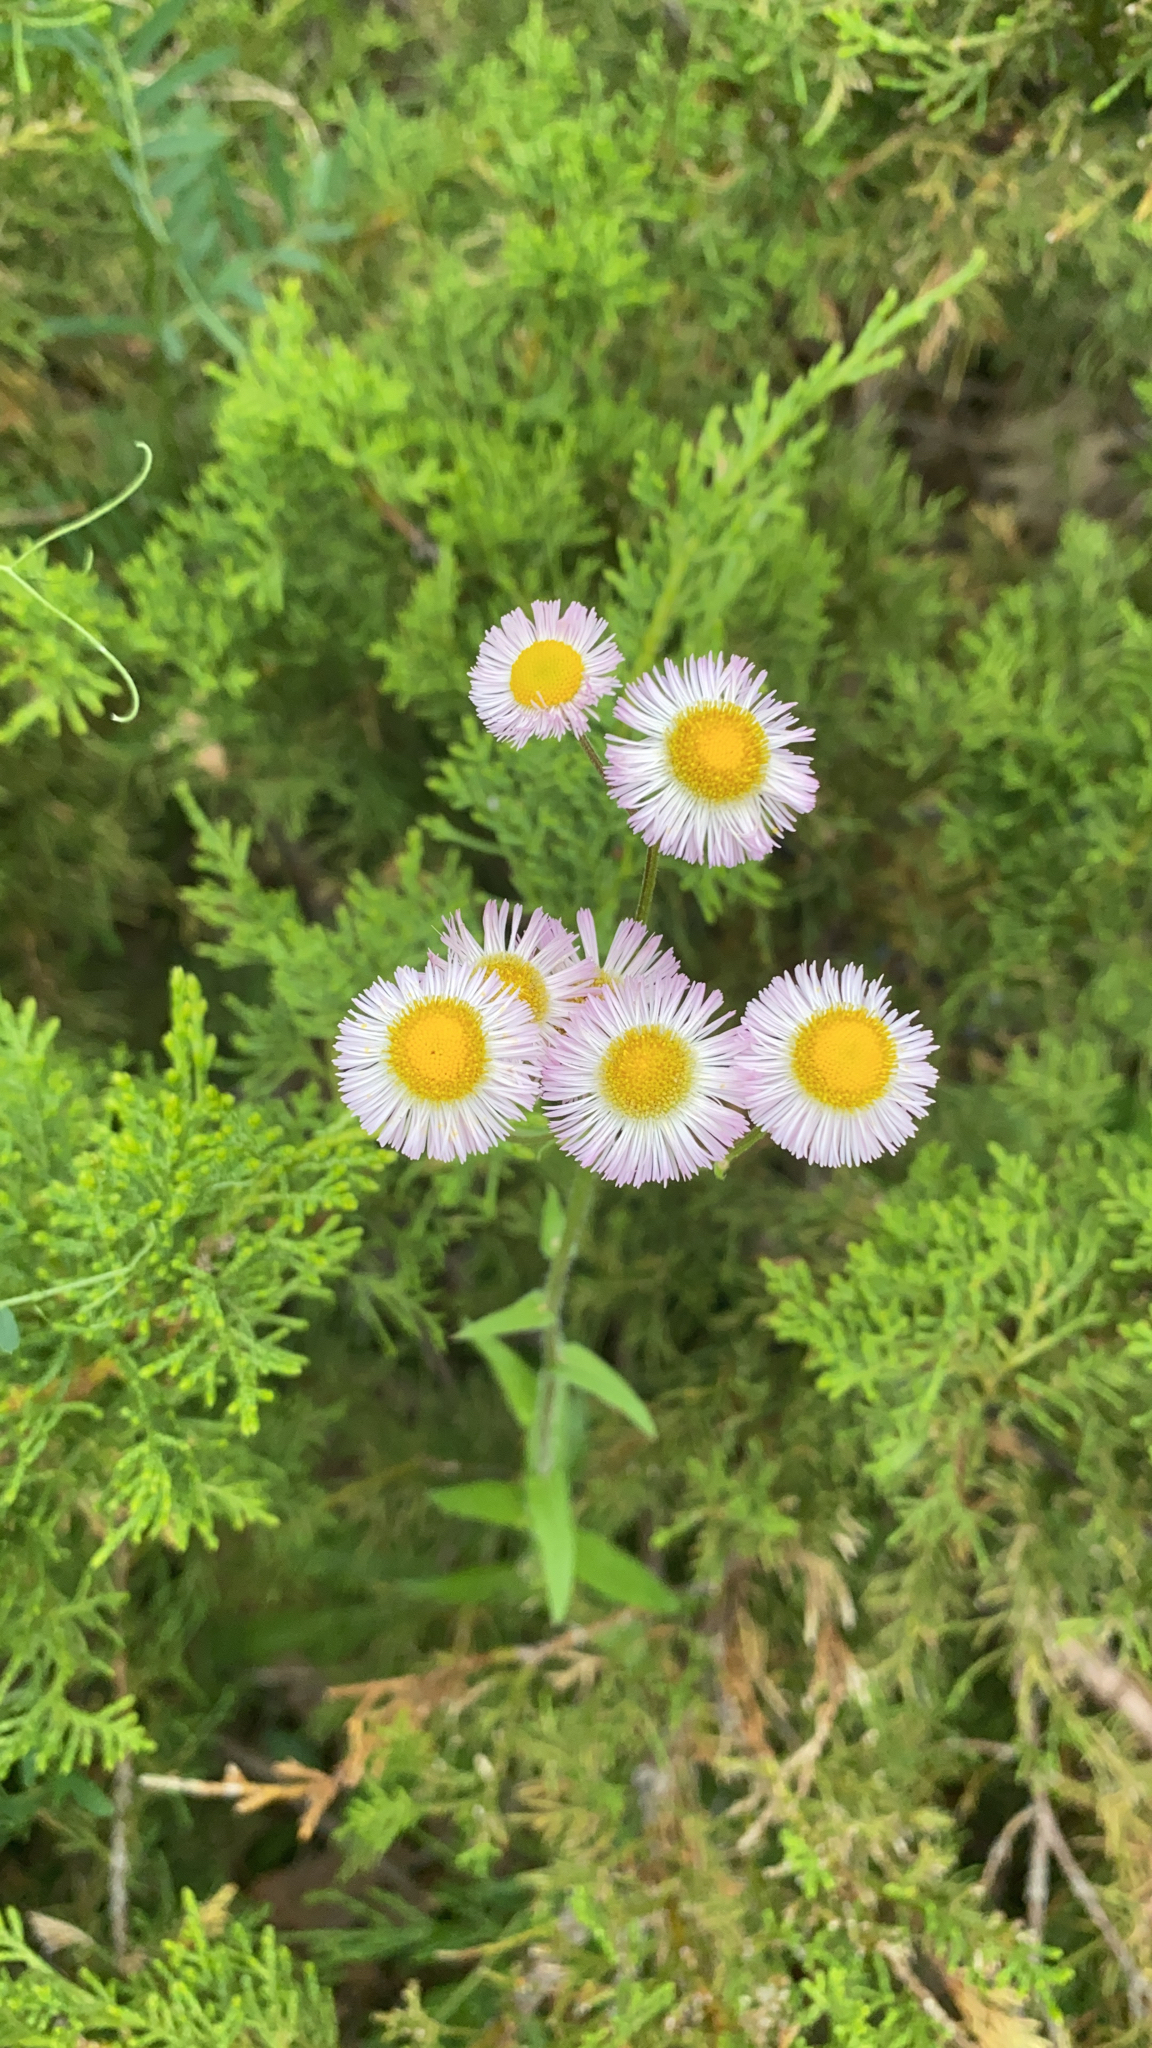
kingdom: Plantae
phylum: Tracheophyta
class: Magnoliopsida
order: Asterales
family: Asteraceae
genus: Erigeron
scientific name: Erigeron philadelphicus
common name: Robin's-plantain
